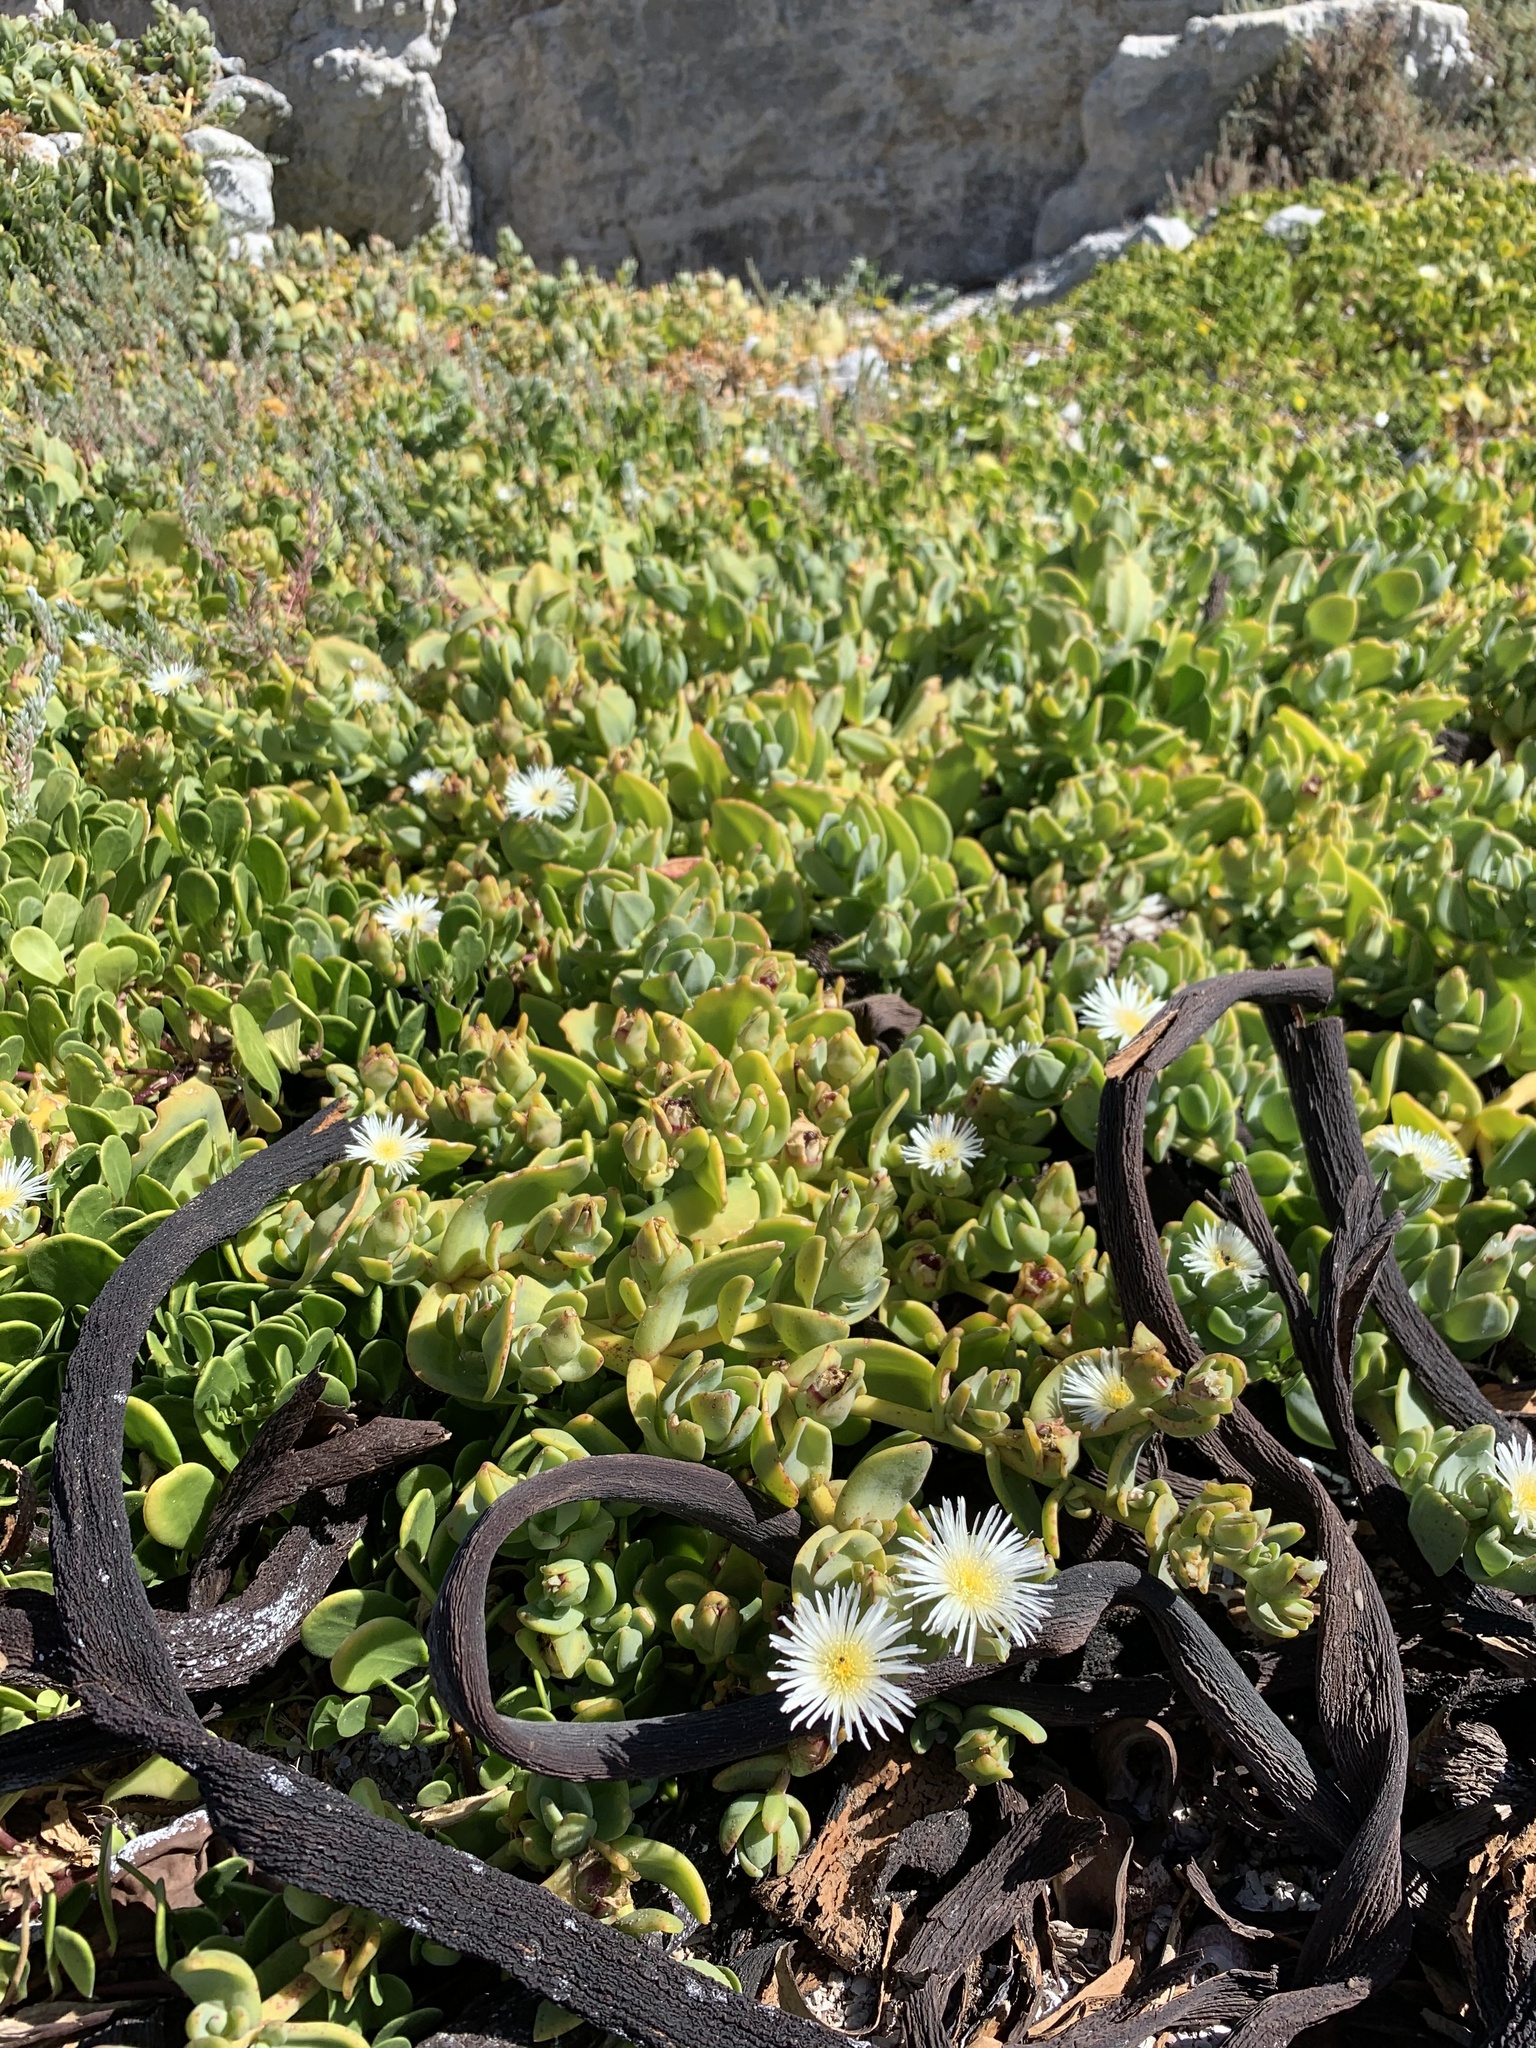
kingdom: Plantae
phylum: Tracheophyta
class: Magnoliopsida
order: Caryophyllales
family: Aizoaceae
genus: Mesembryanthemum
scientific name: Mesembryanthemum vanrensburgii
